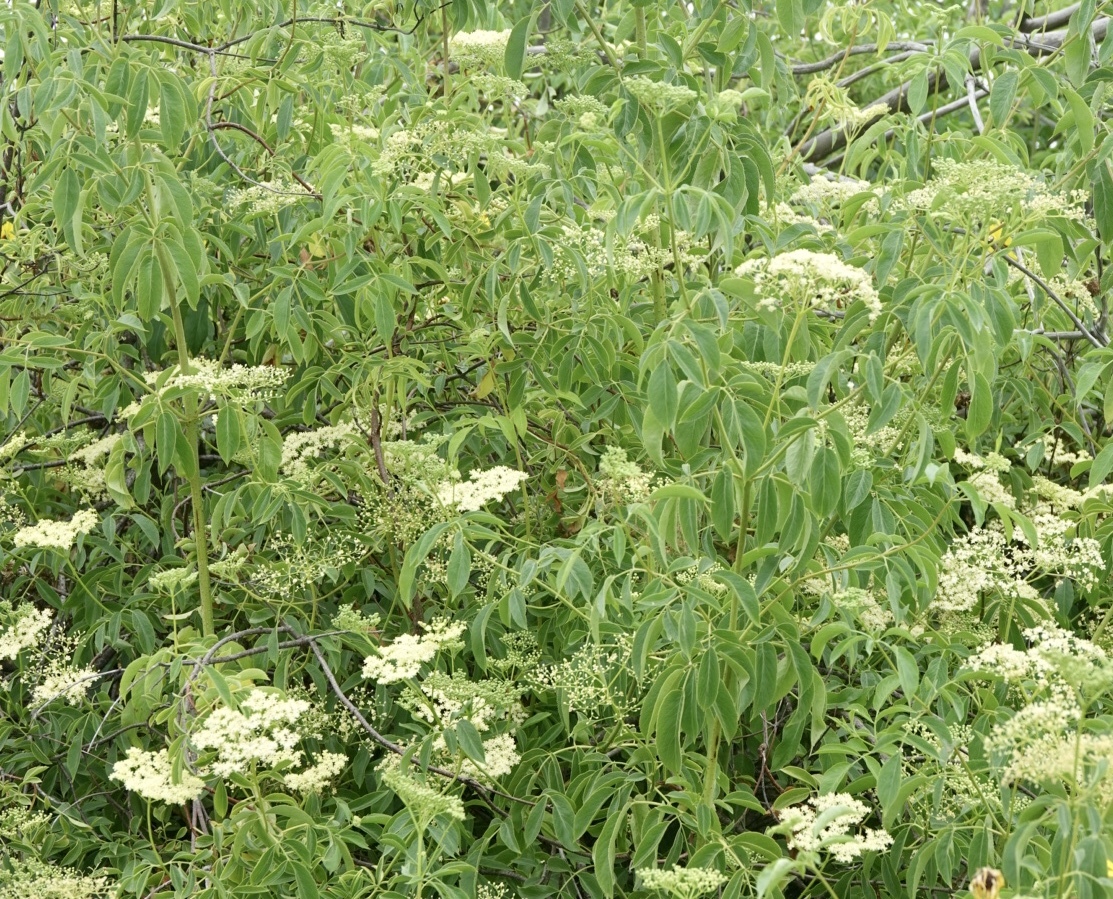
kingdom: Plantae
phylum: Tracheophyta
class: Magnoliopsida
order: Dipsacales
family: Viburnaceae
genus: Sambucus
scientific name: Sambucus cerulea
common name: Blue elder
